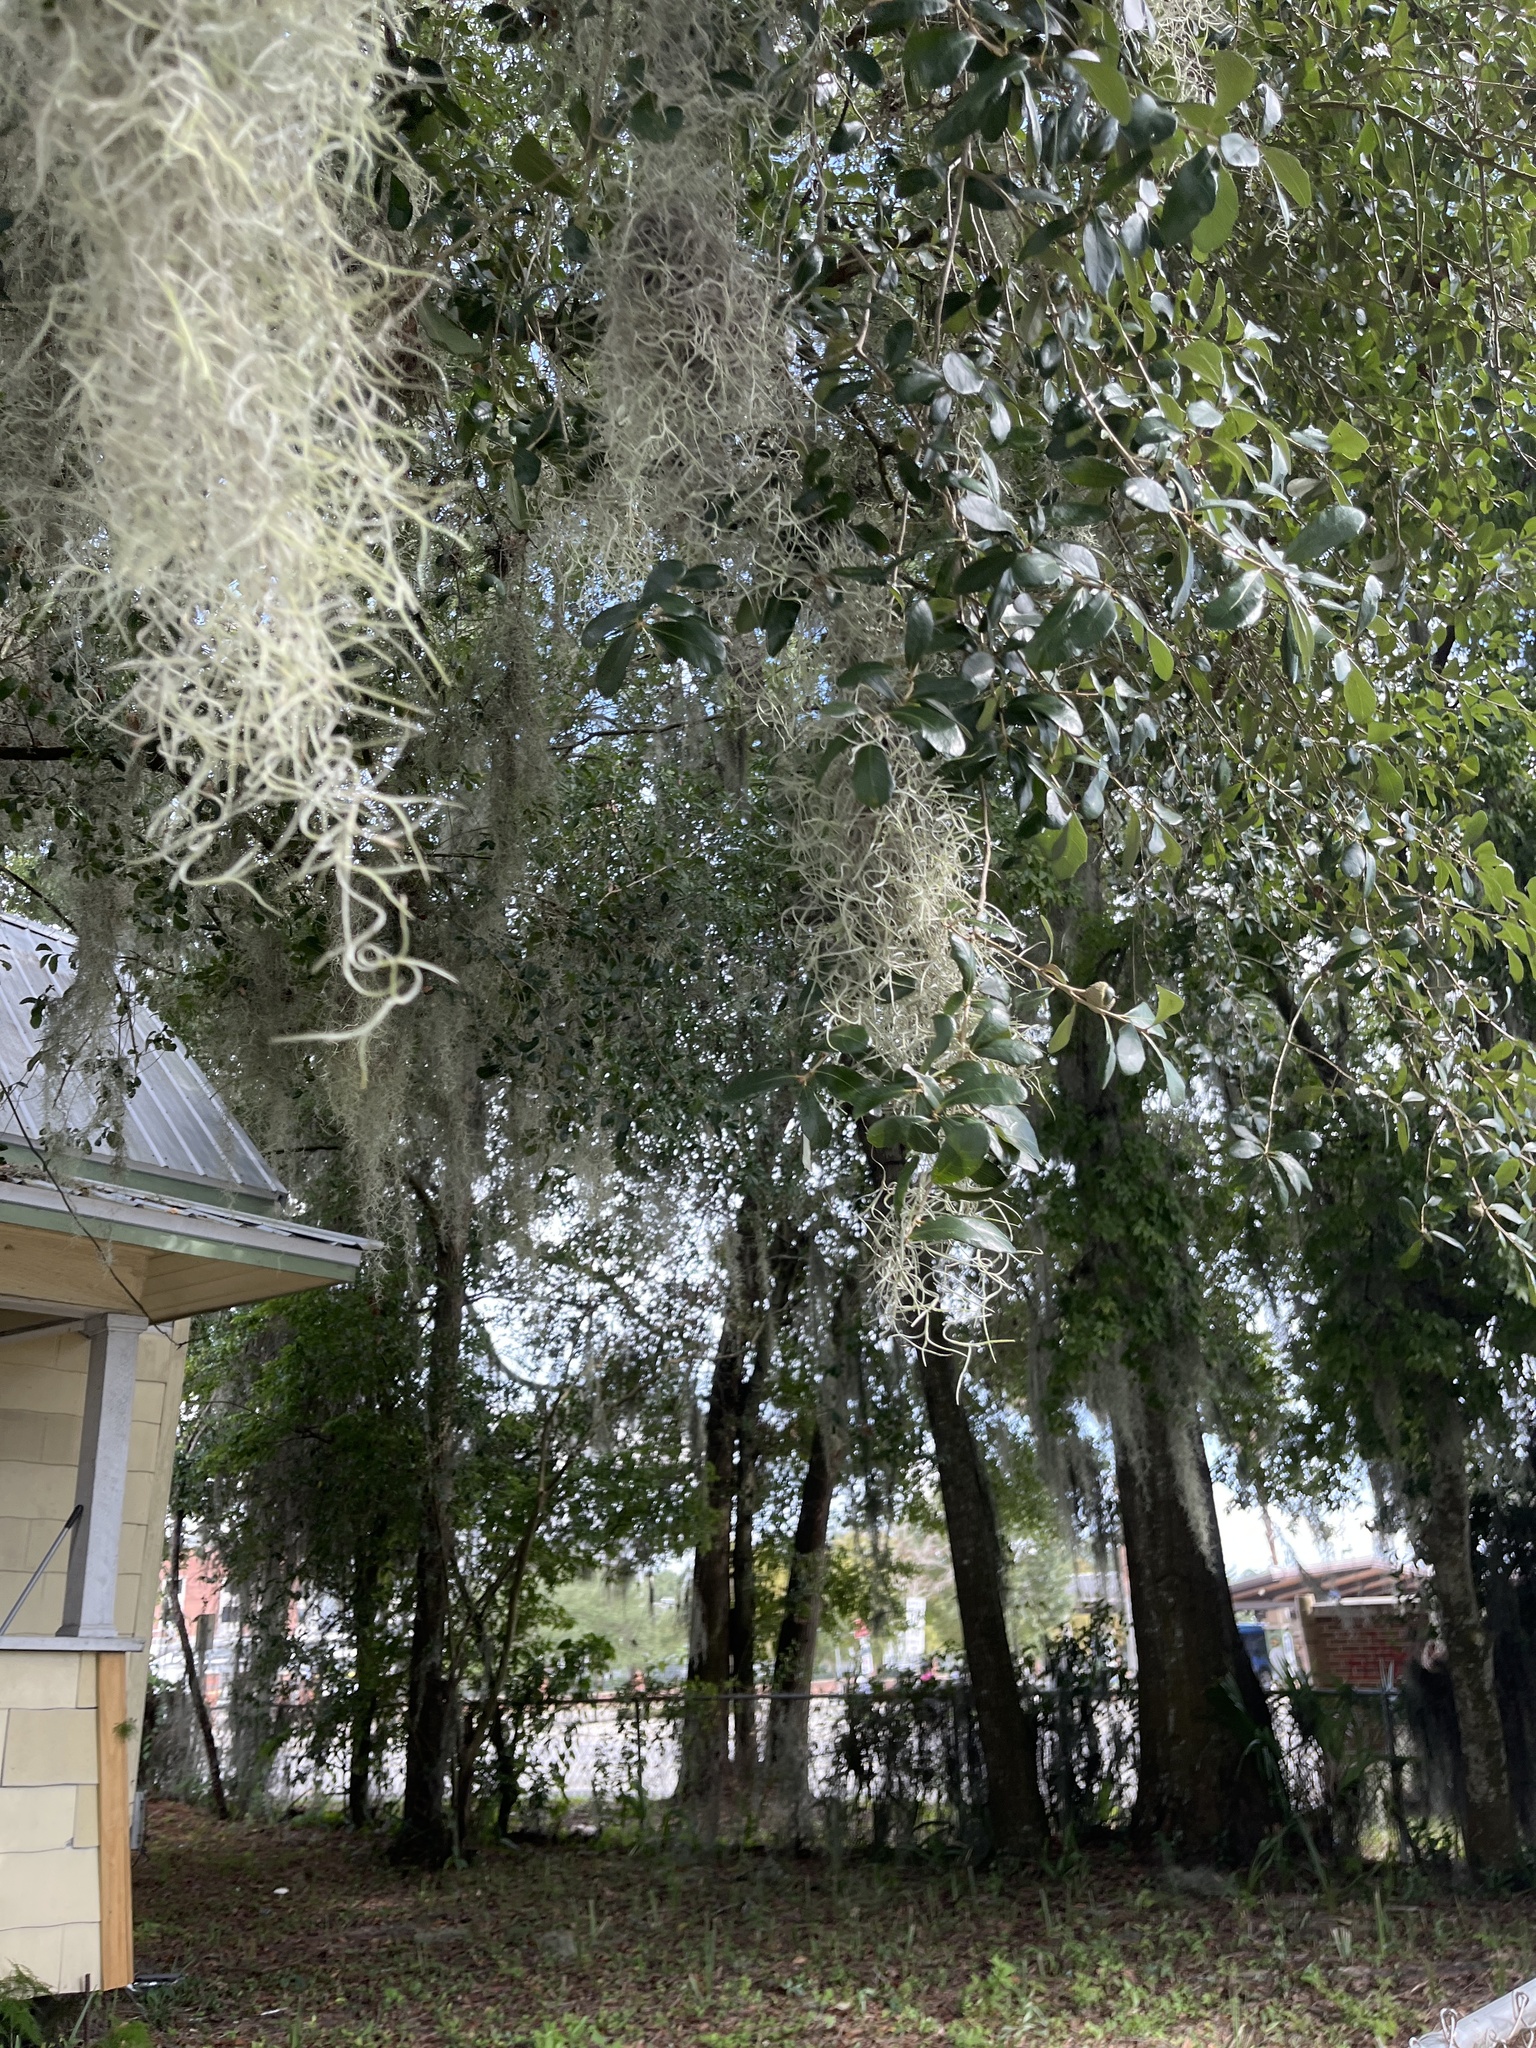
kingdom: Plantae
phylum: Tracheophyta
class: Liliopsida
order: Poales
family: Bromeliaceae
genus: Tillandsia
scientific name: Tillandsia usneoides
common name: Spanish moss
